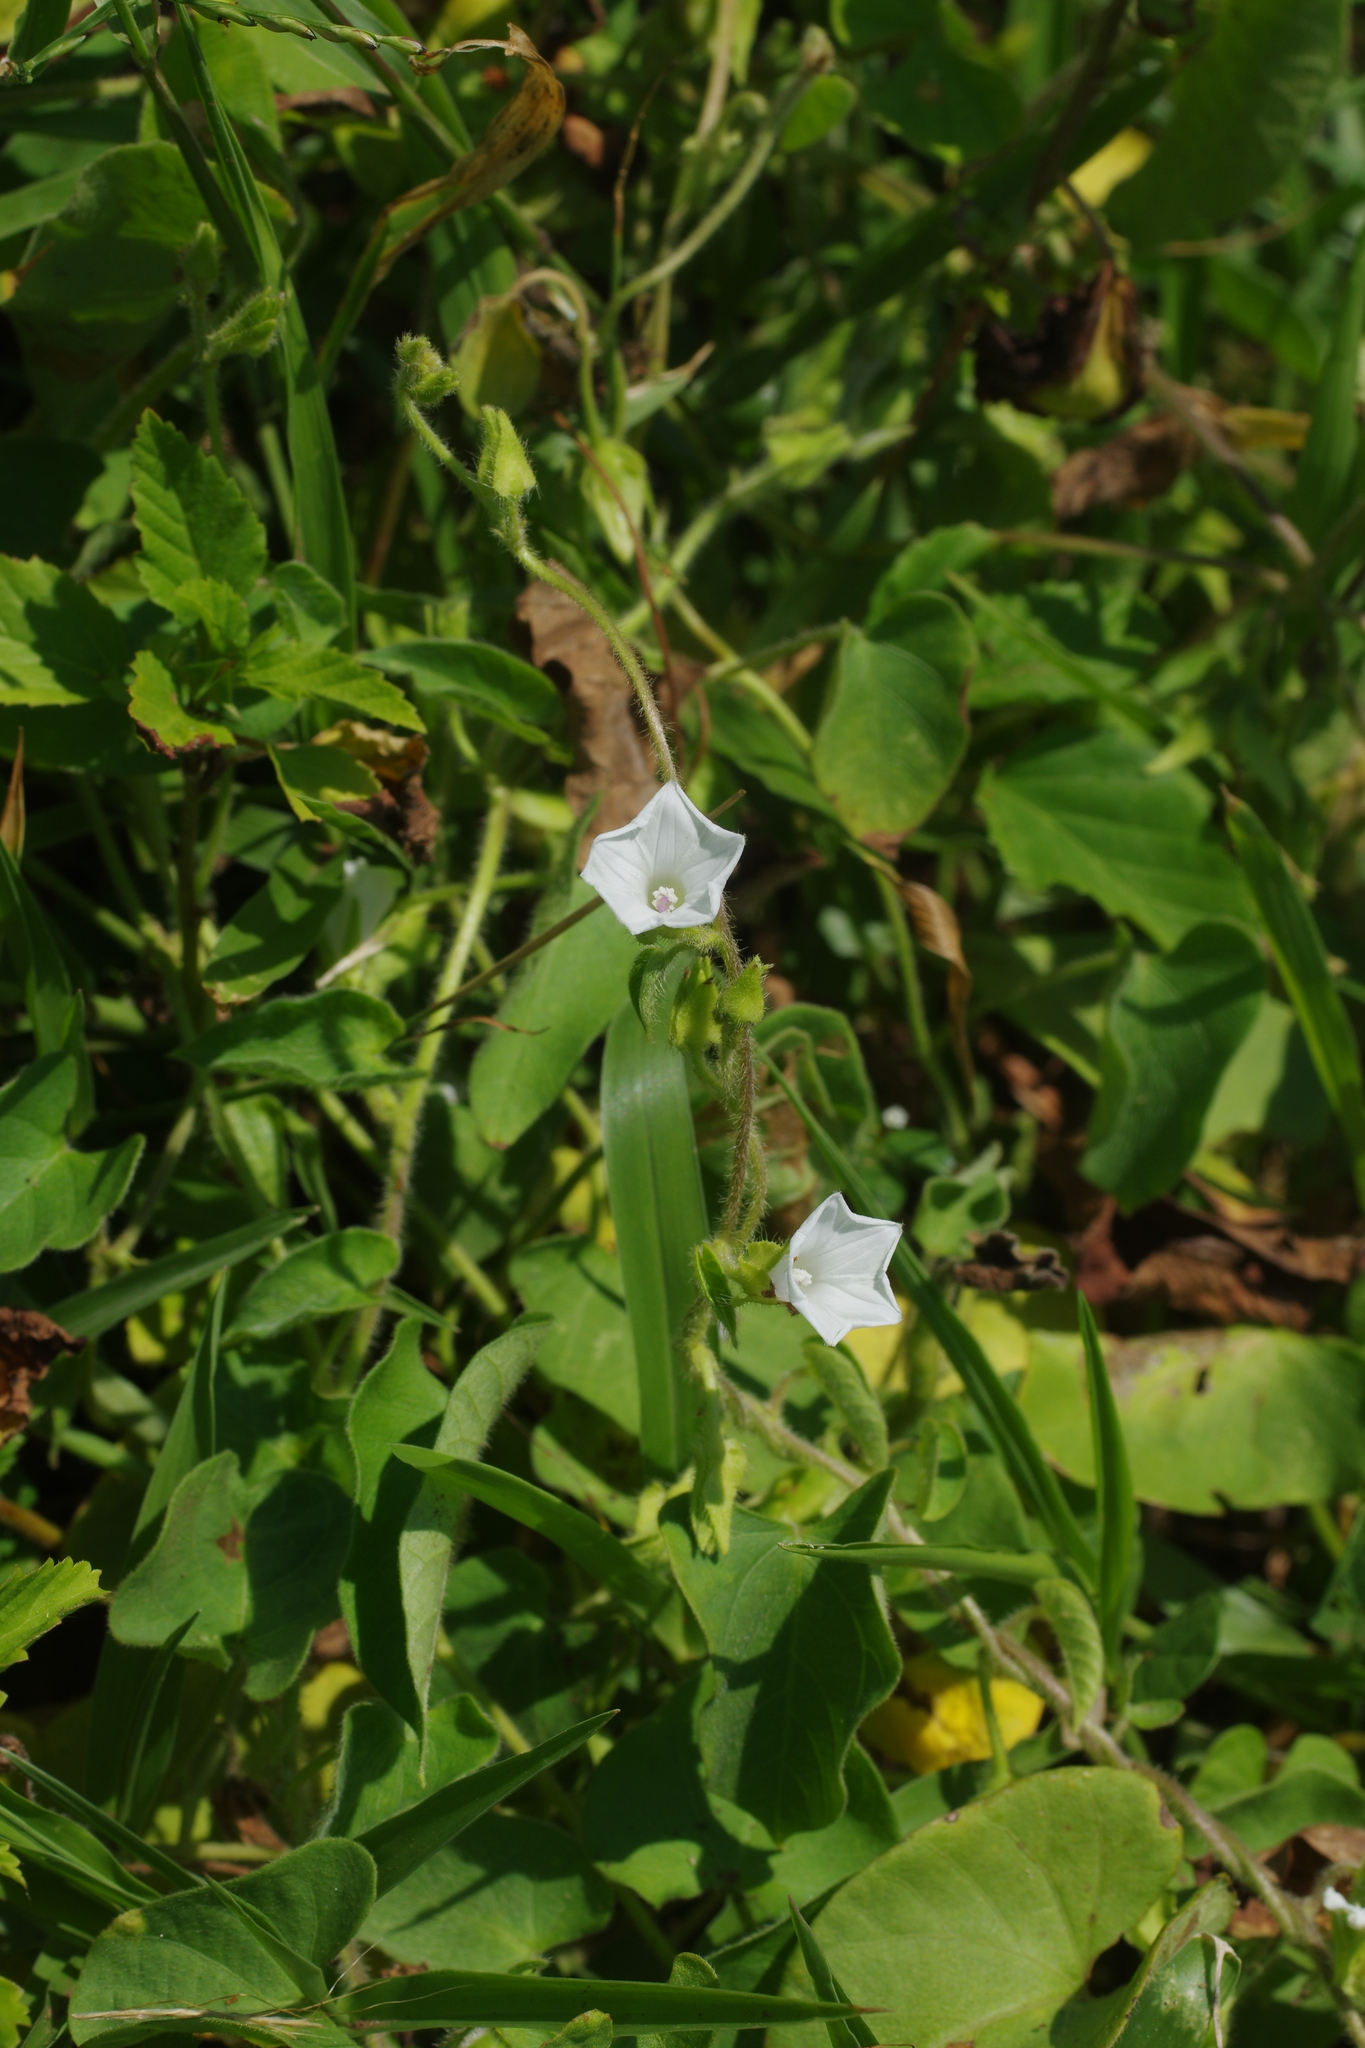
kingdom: Plantae
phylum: Tracheophyta
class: Magnoliopsida
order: Solanales
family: Convolvulaceae
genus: Ipomoea
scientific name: Ipomoea biflora
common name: Bellvine
